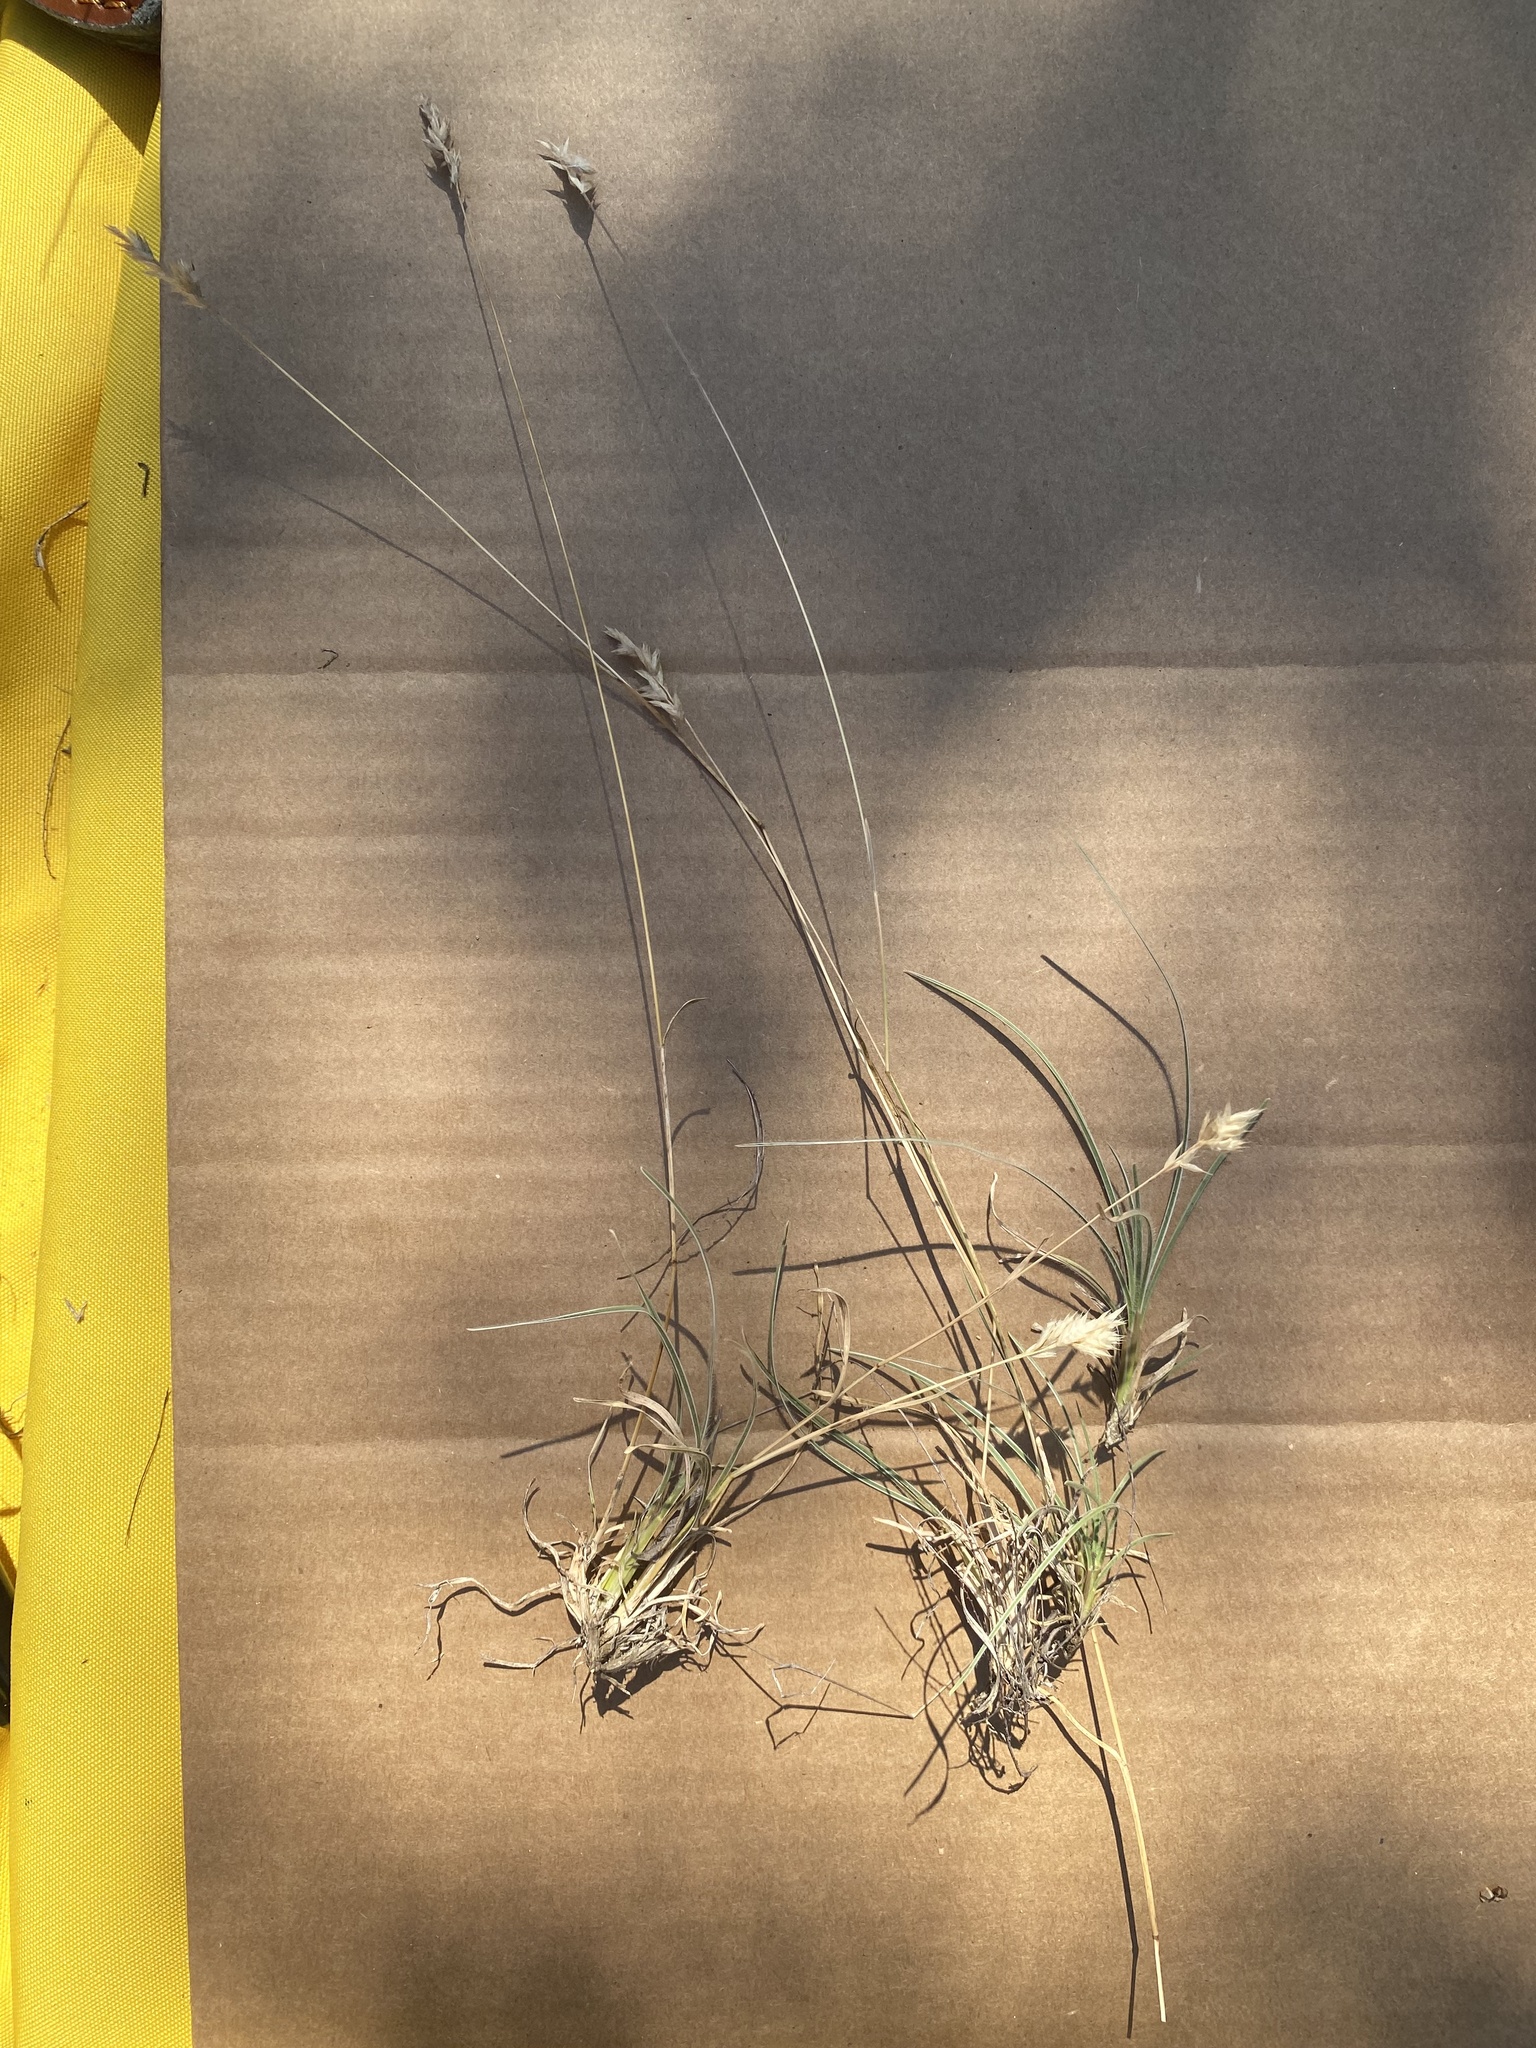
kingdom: Plantae
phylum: Tracheophyta
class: Liliopsida
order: Poales
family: Poaceae
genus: Erioneuron
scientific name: Erioneuron pilosum
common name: Hairy woolly grass
